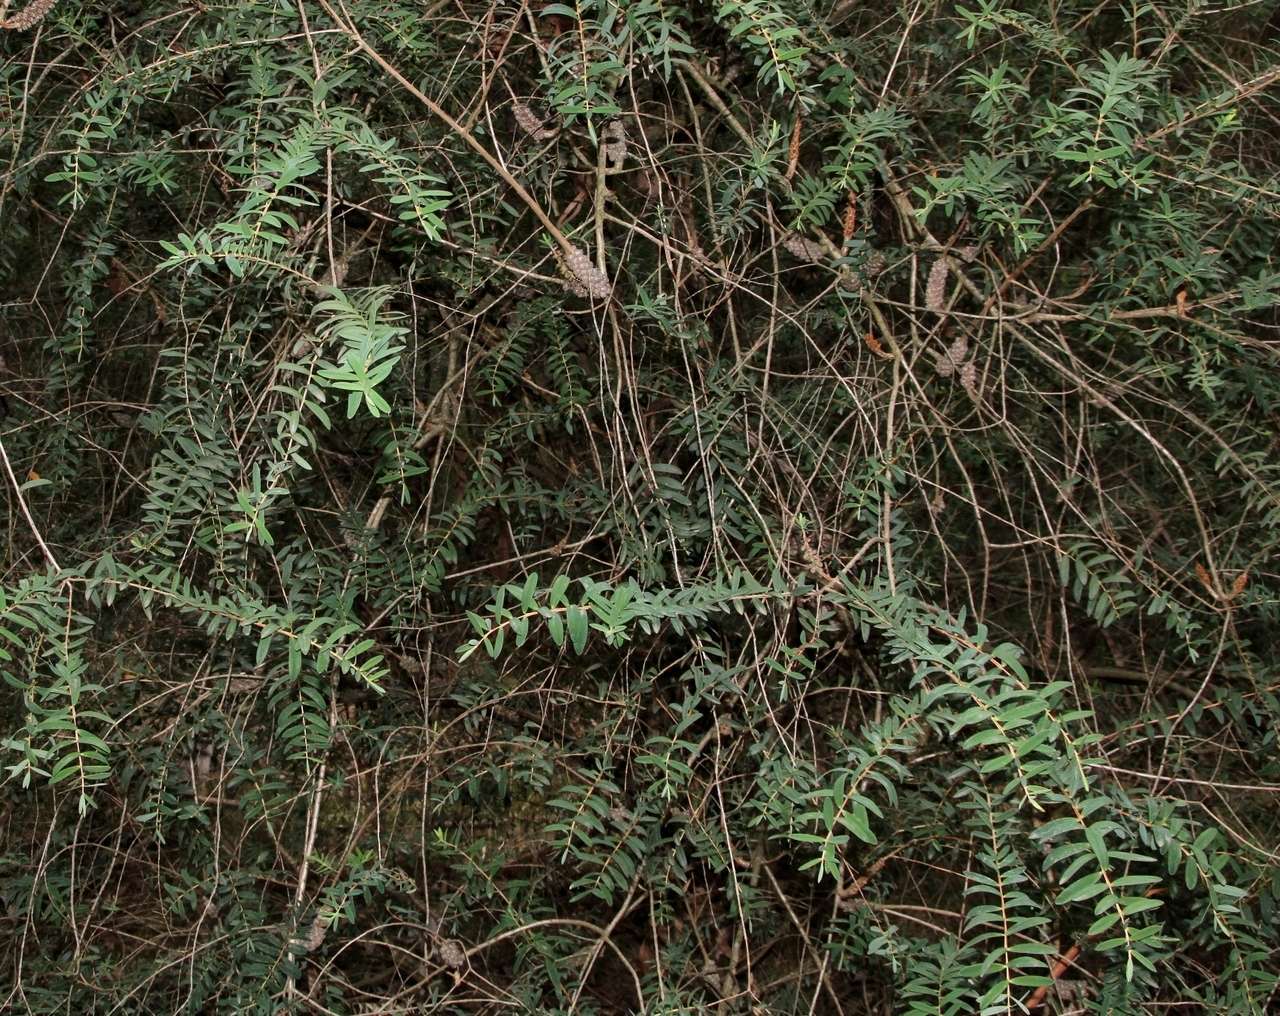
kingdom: Plantae
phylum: Tracheophyta
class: Magnoliopsida
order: Myrtales
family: Myrtaceae
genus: Melaleuca
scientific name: Melaleuca hypericifolia
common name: Red honey myrtle
